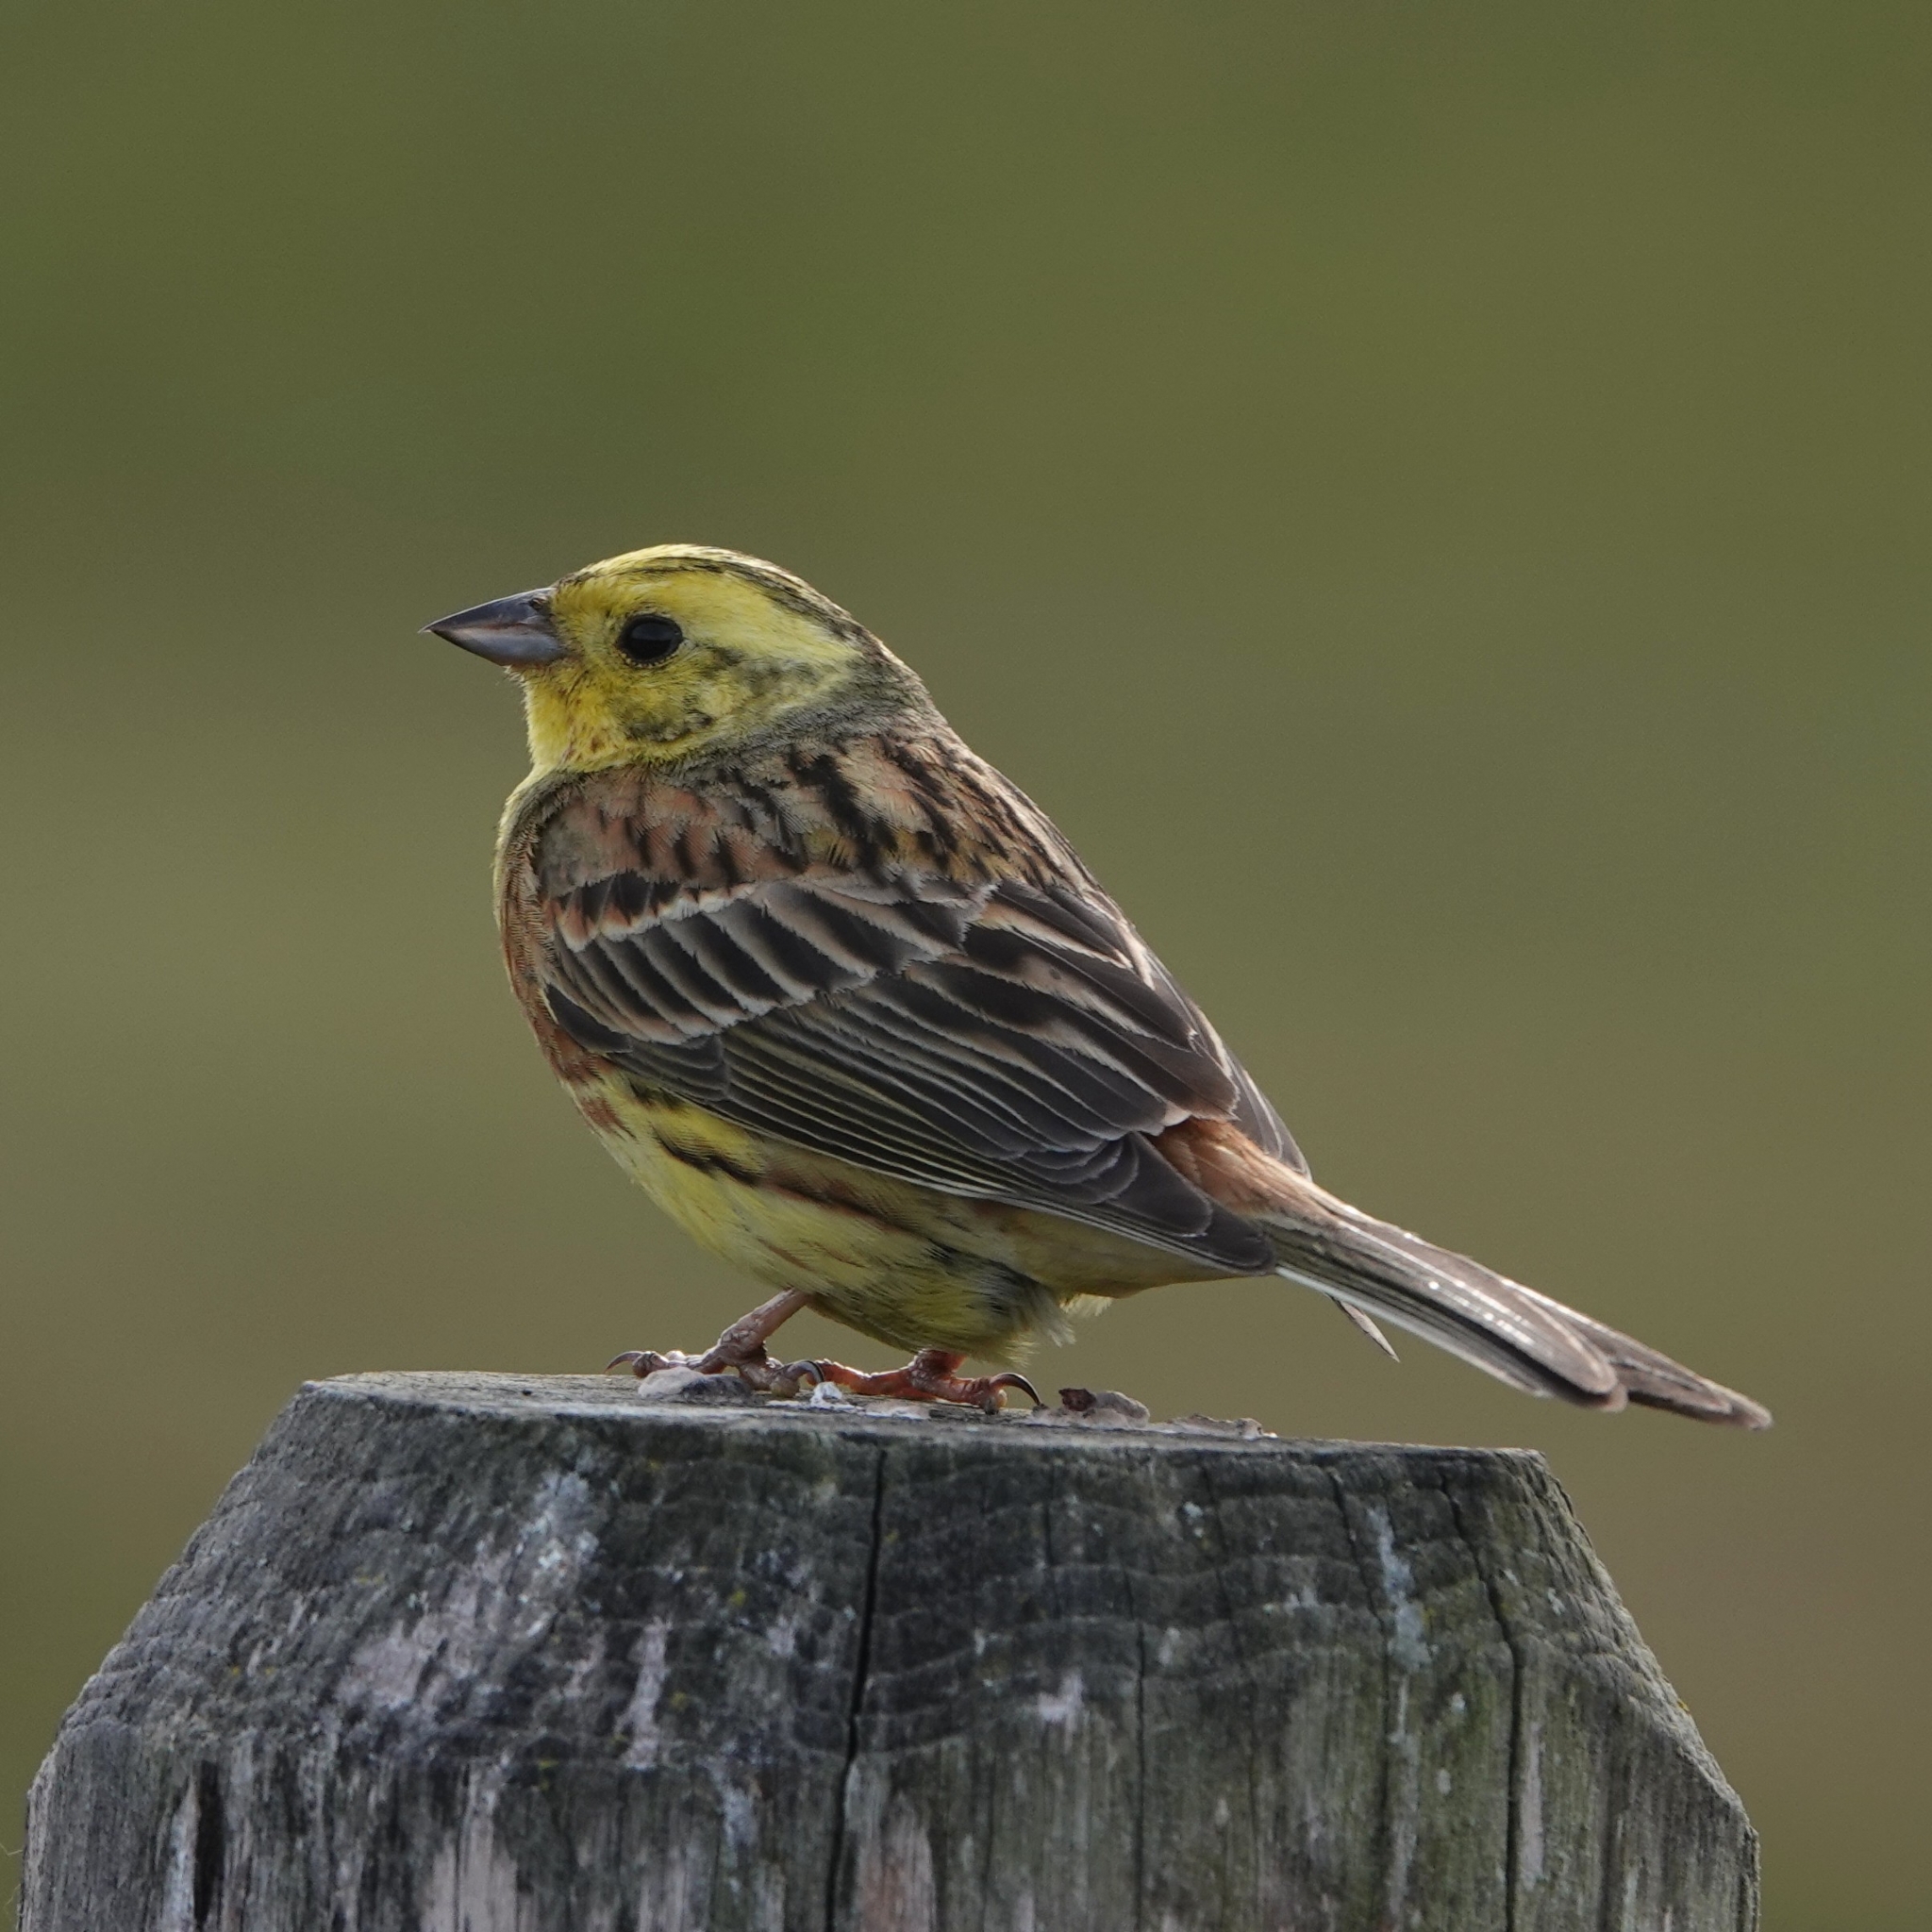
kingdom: Animalia
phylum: Chordata
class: Aves
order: Passeriformes
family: Emberizidae
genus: Emberiza
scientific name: Emberiza citrinella
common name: Yellowhammer
